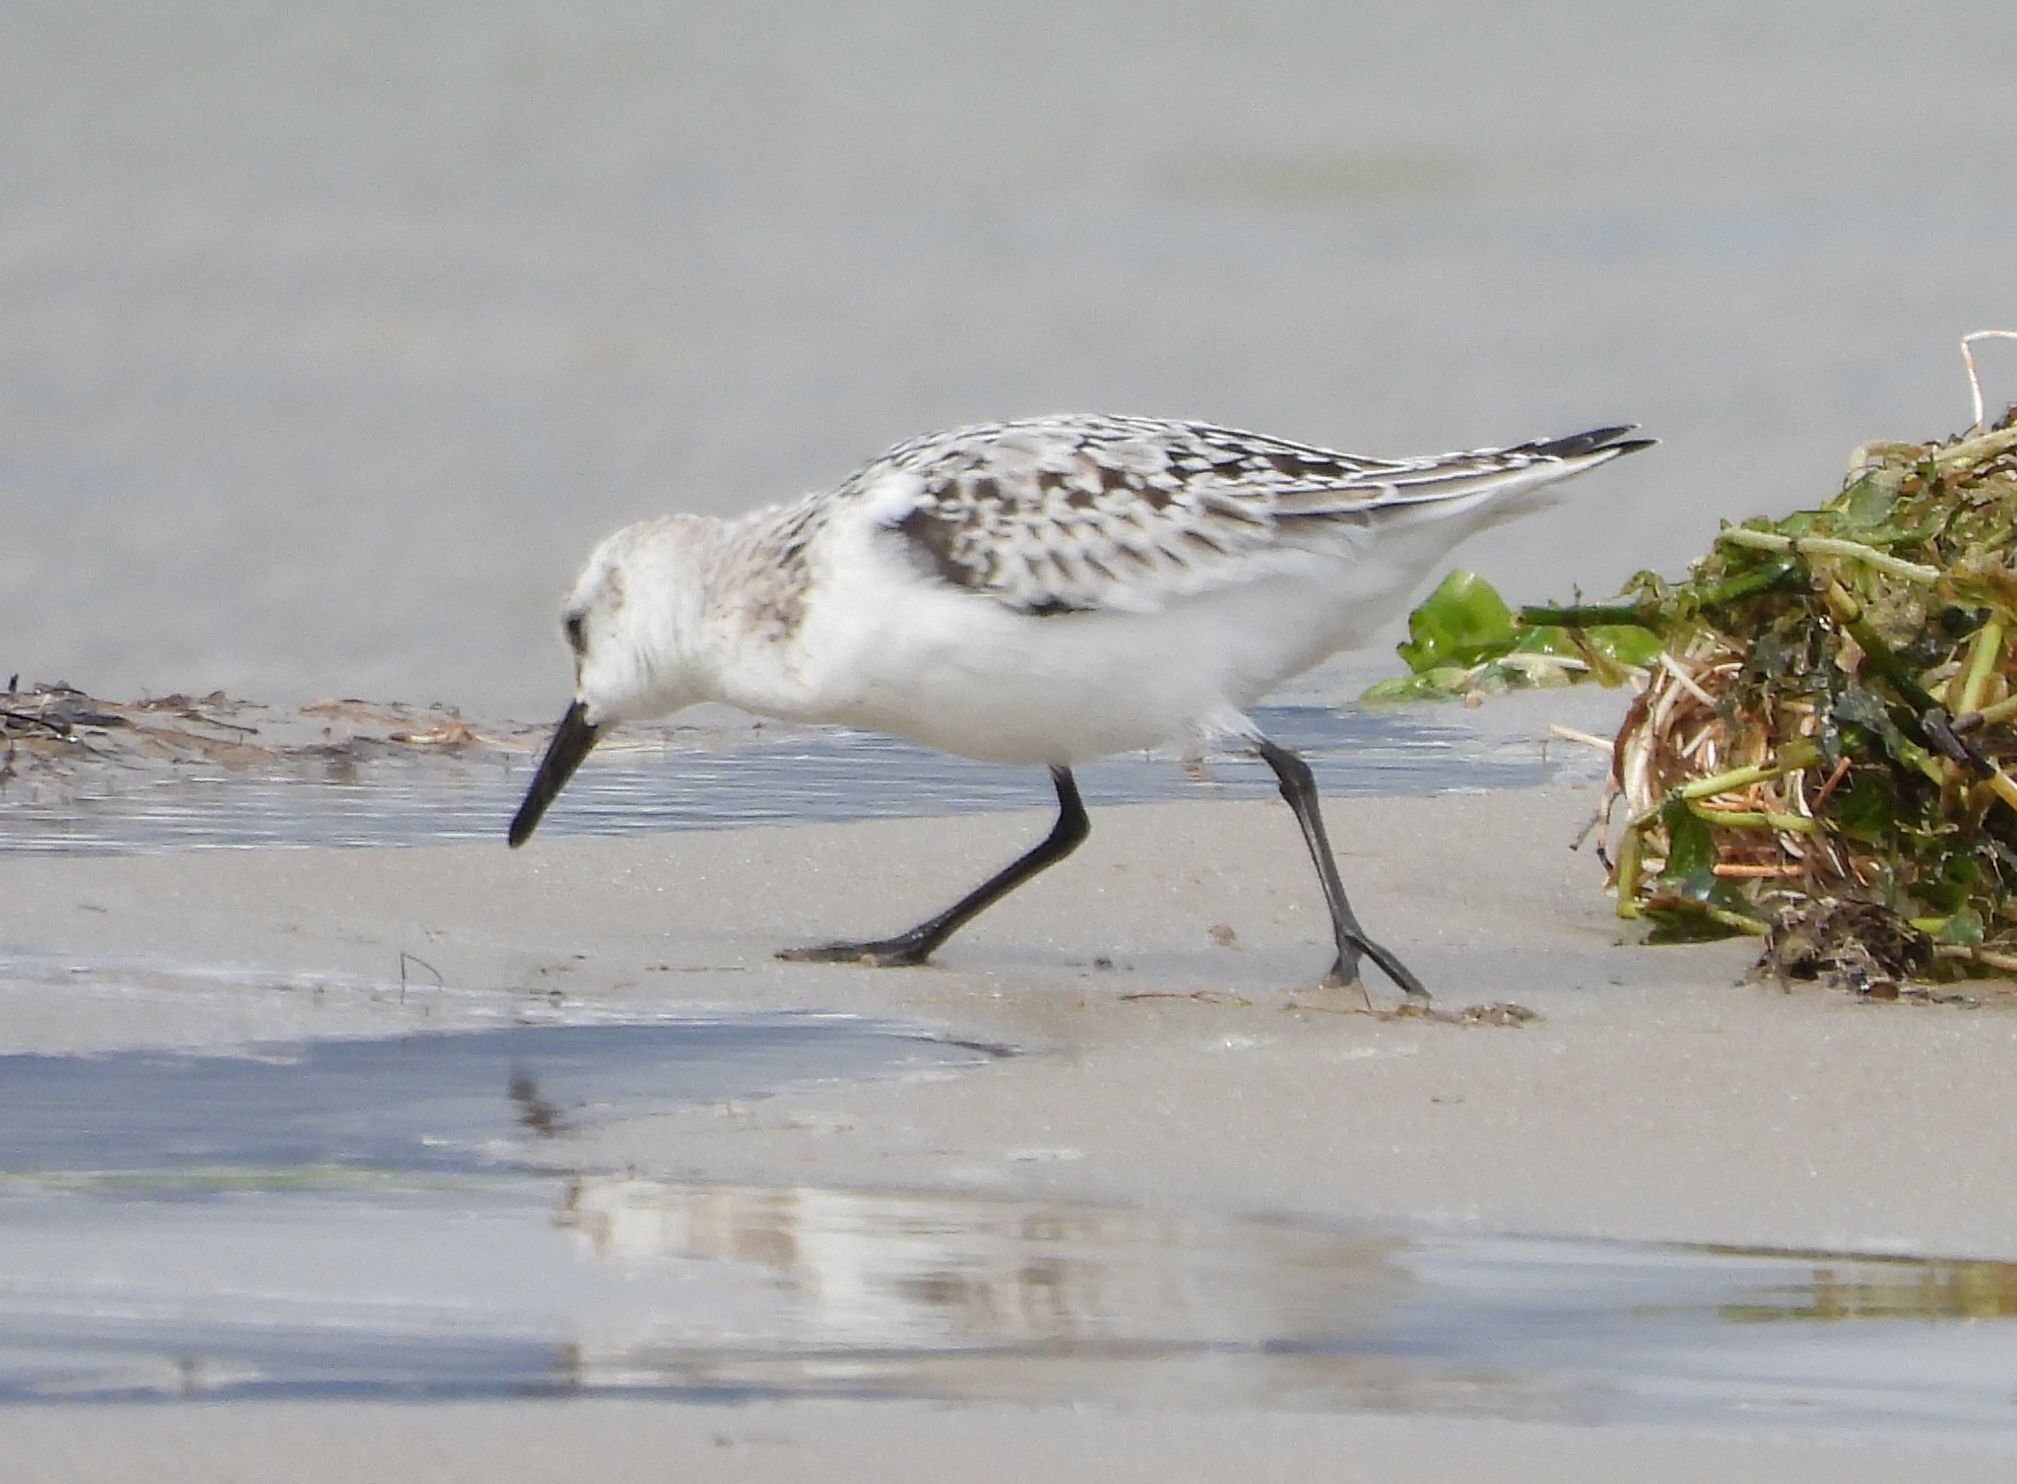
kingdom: Animalia
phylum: Chordata
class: Aves
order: Charadriiformes
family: Scolopacidae
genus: Calidris
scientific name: Calidris alba
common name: Sanderling
